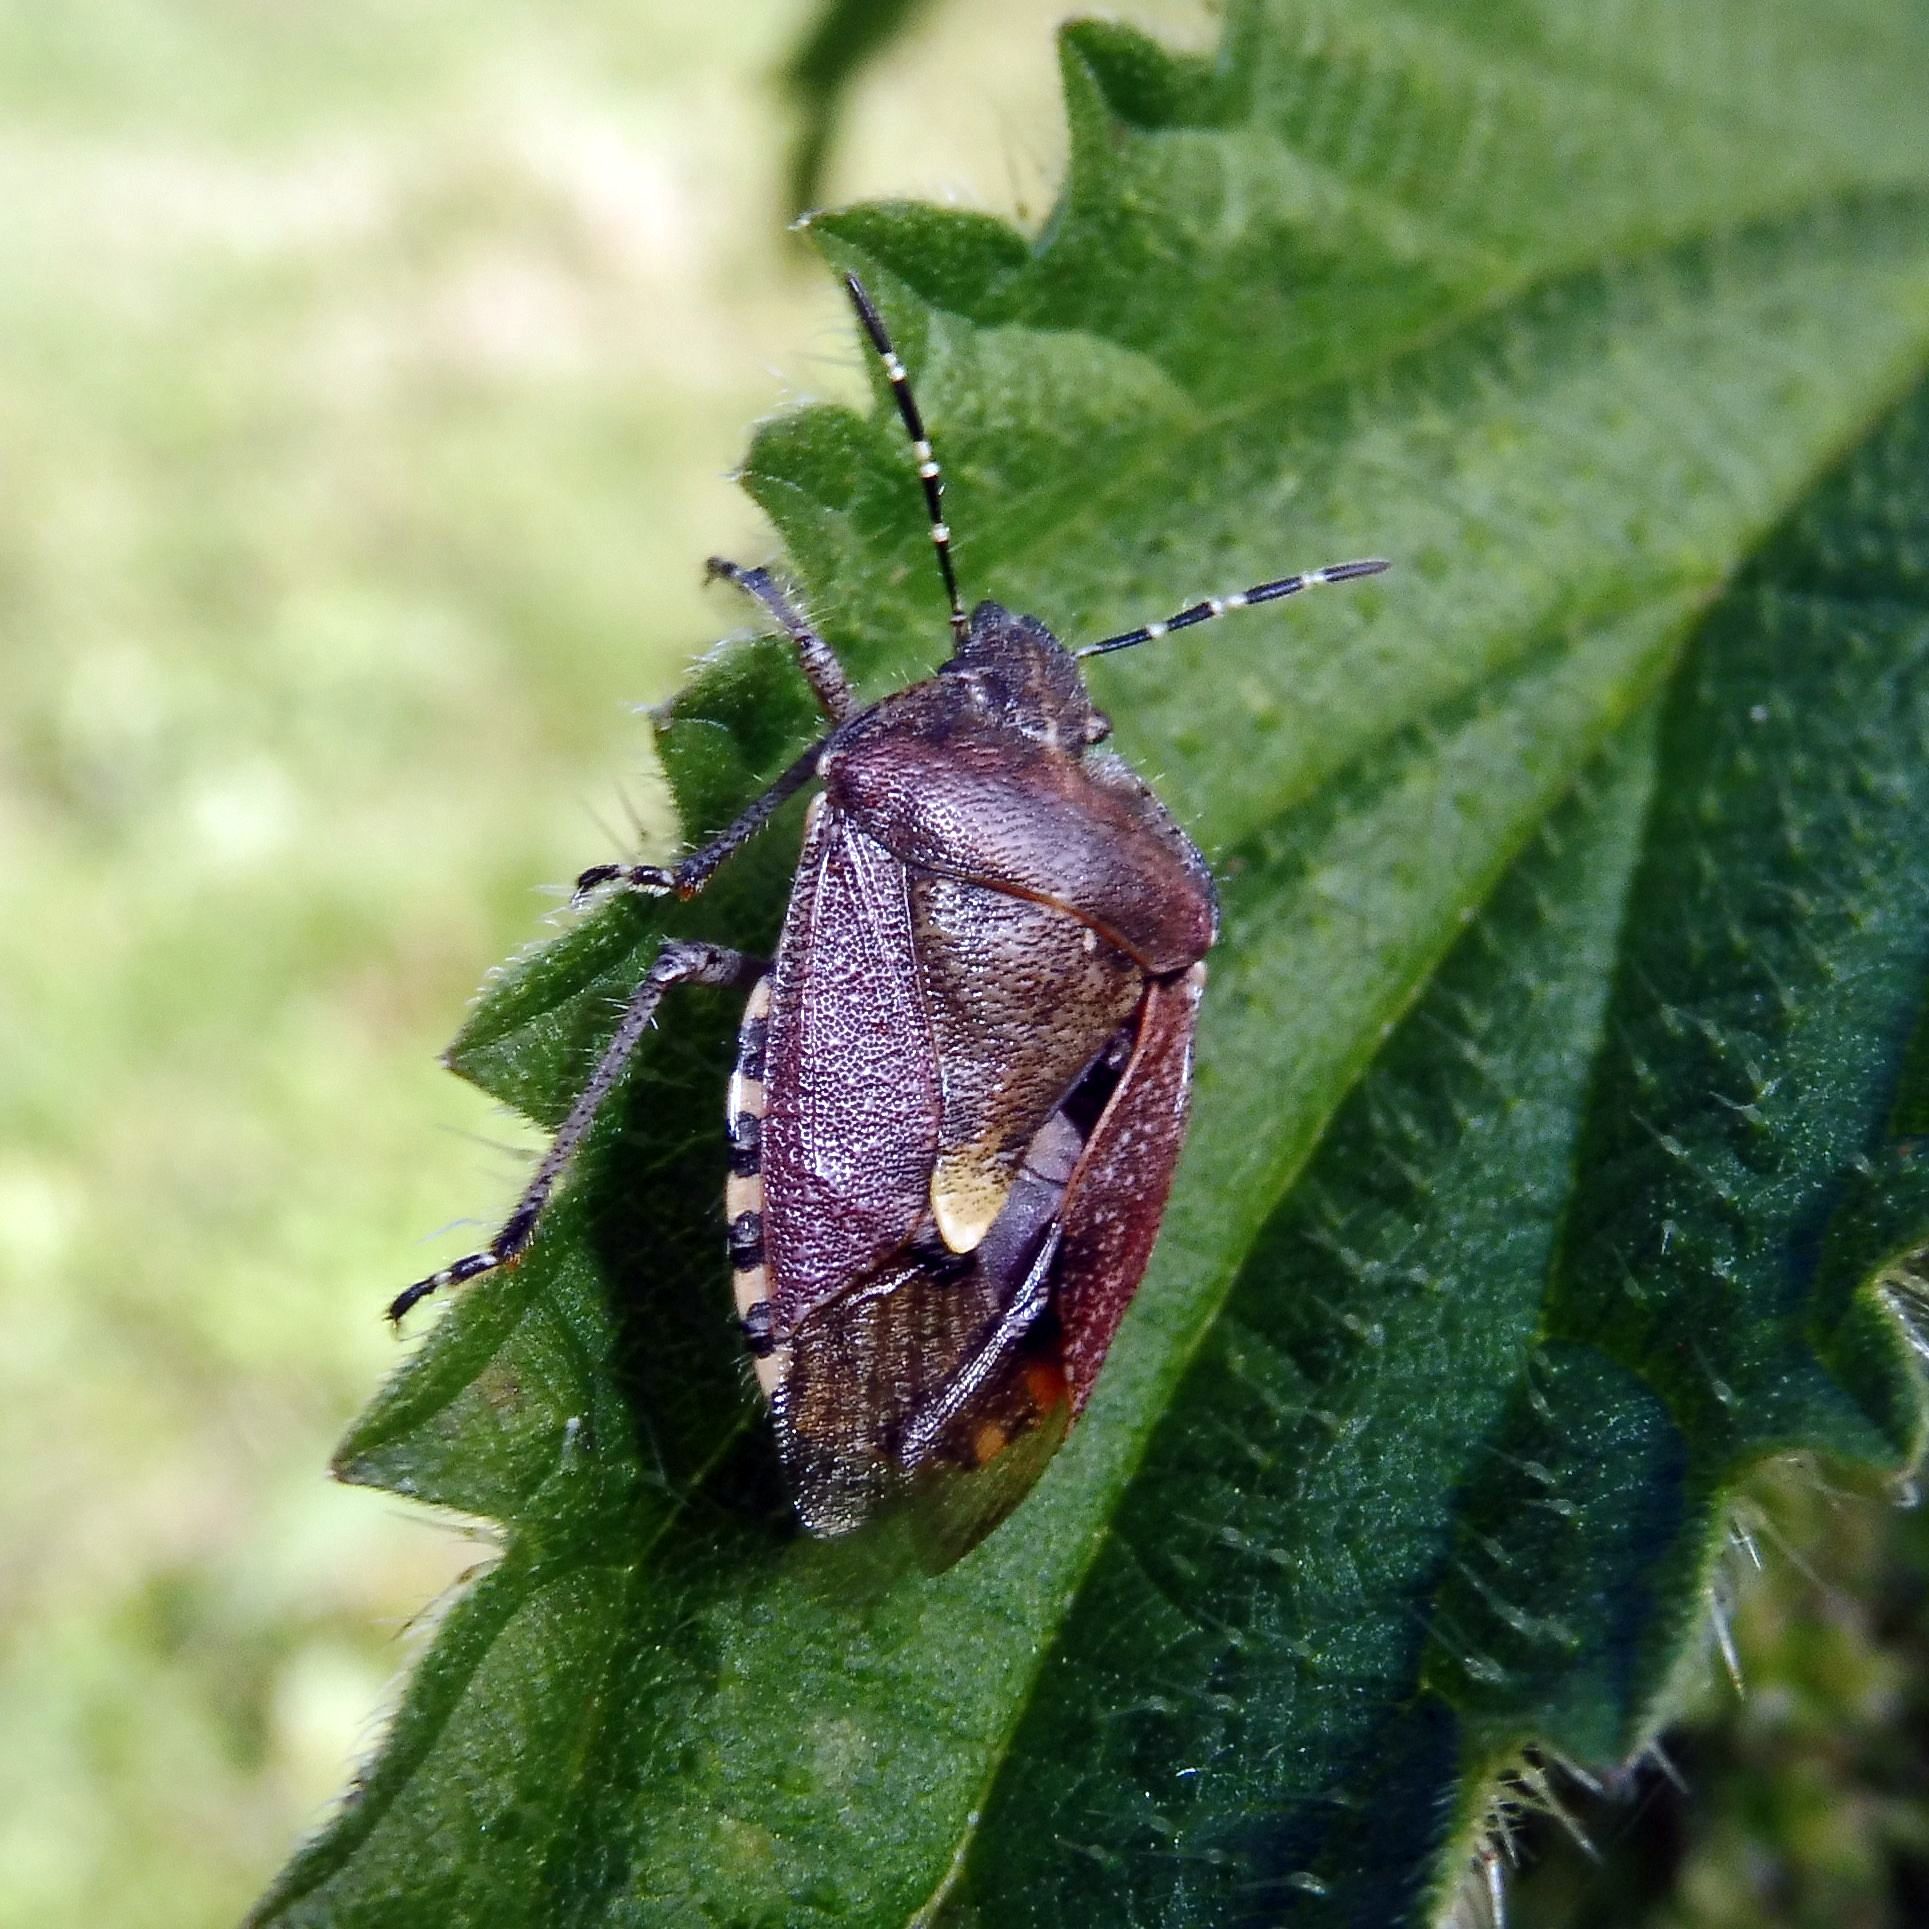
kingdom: Animalia
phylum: Arthropoda
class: Insecta
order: Hemiptera
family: Pentatomidae
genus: Dolycoris
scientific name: Dolycoris baccarum
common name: Sloe bug
